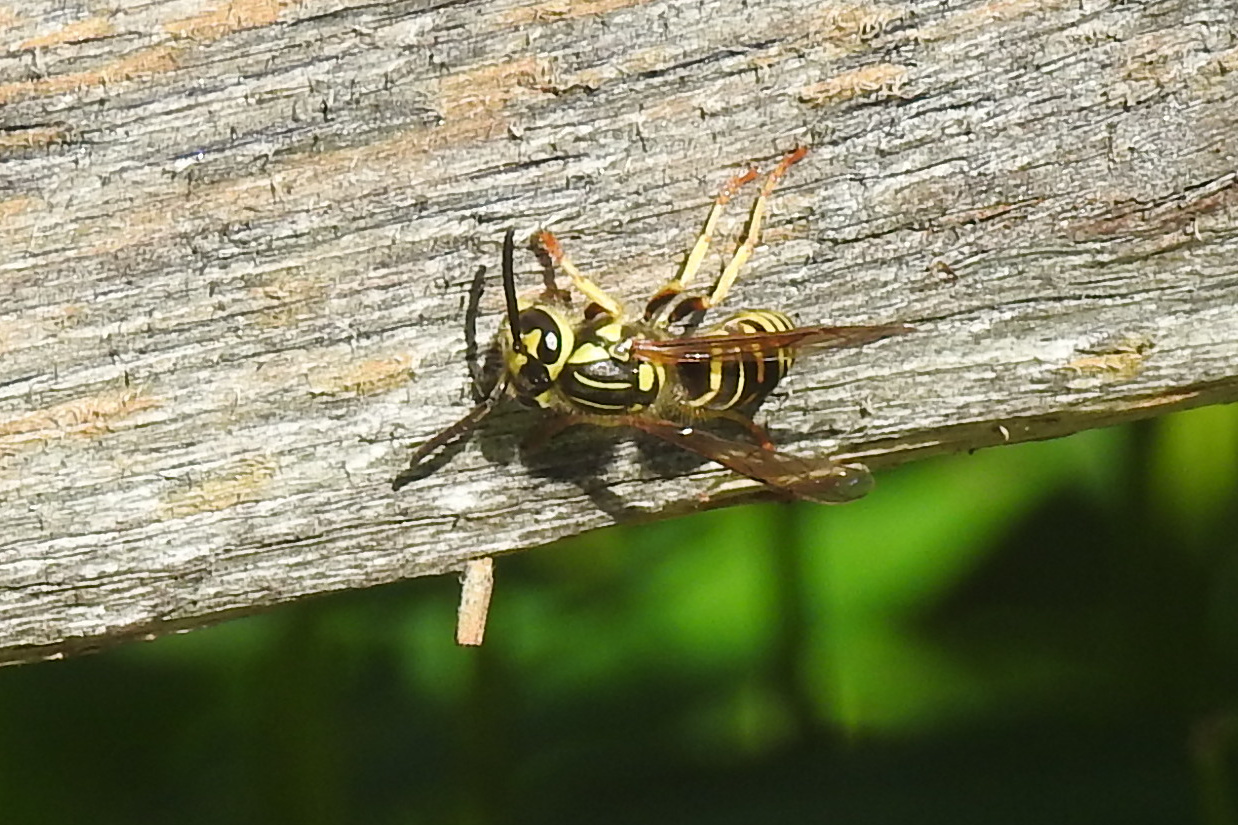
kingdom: Animalia
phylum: Arthropoda
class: Insecta
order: Hymenoptera
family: Vespidae
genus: Vespula
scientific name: Vespula squamosa
